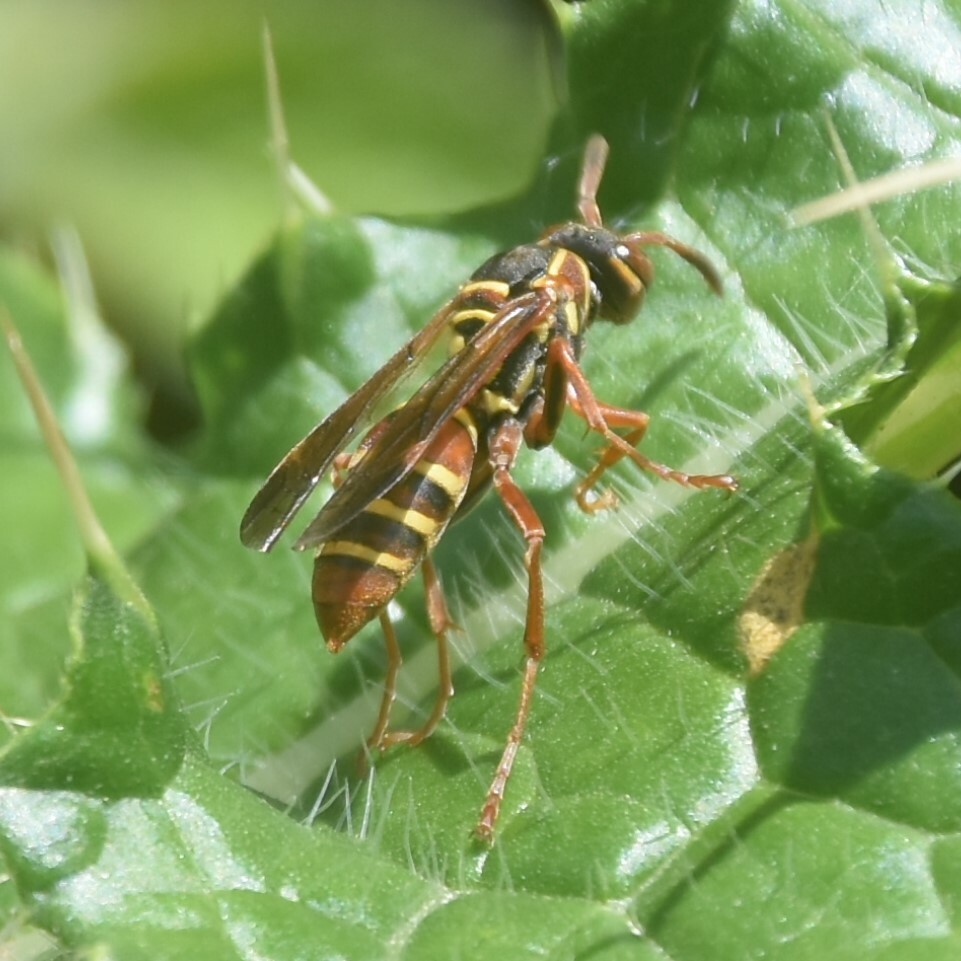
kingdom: Animalia
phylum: Arthropoda
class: Insecta
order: Hymenoptera
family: Eumenidae
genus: Knemodynerus
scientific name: Knemodynerus multimaculatus
